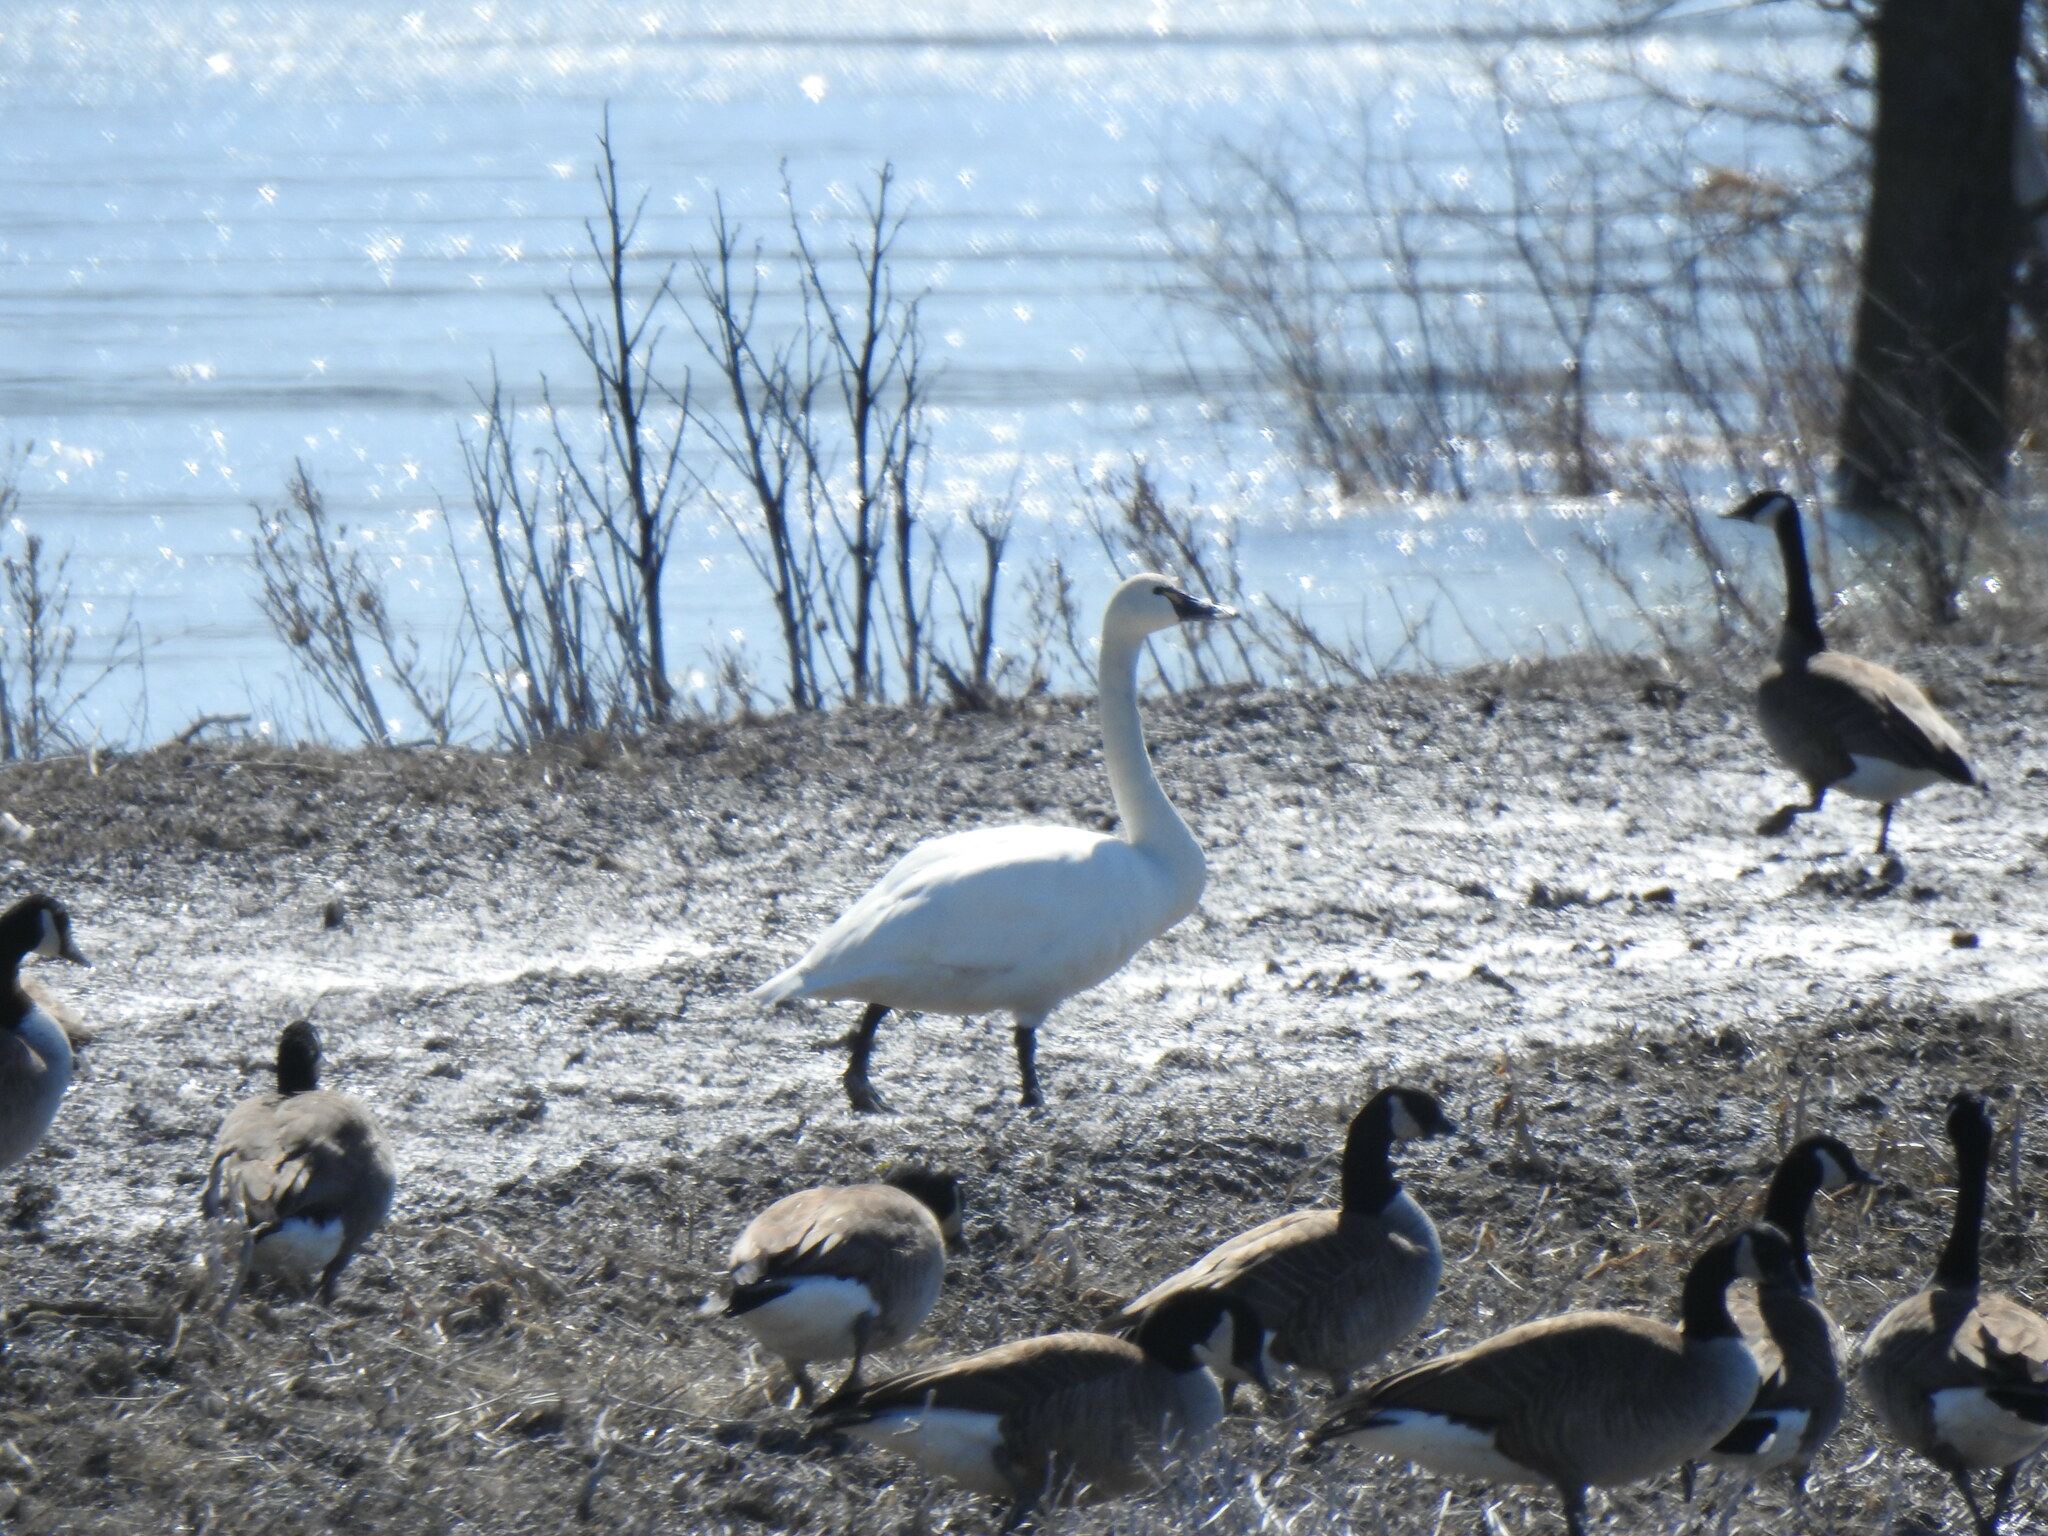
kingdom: Animalia
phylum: Chordata
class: Aves
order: Anseriformes
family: Anatidae
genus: Cygnus
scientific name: Cygnus columbianus
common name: Tundra swan
